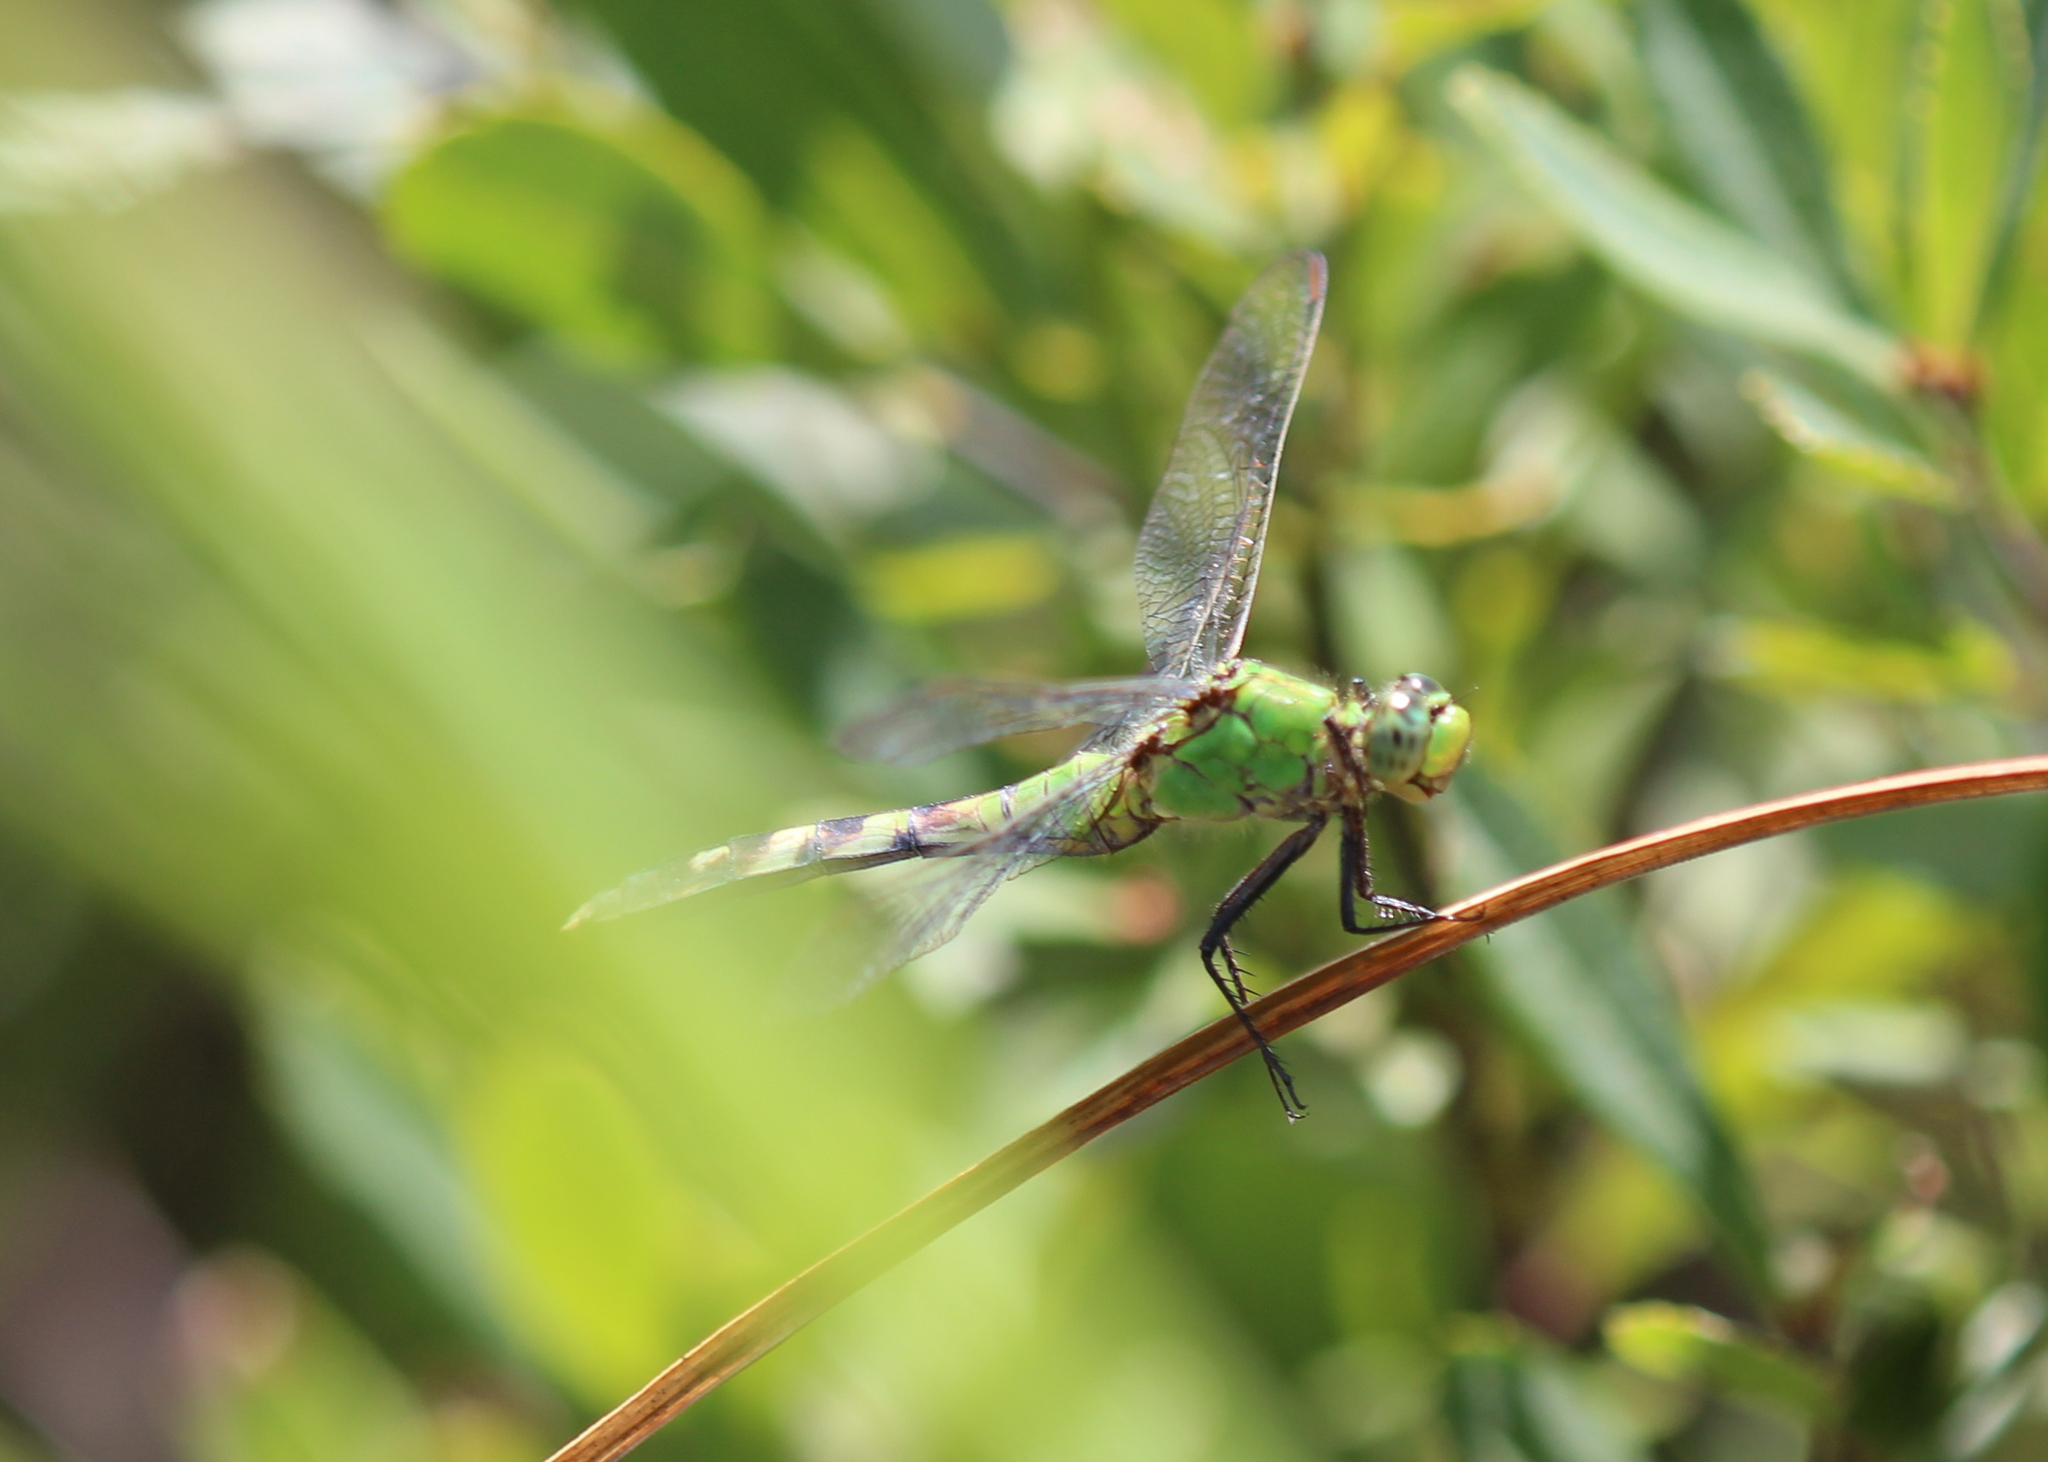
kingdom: Animalia
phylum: Arthropoda
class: Insecta
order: Odonata
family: Libellulidae
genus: Erythemis
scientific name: Erythemis simplicicollis
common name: Eastern pondhawk
